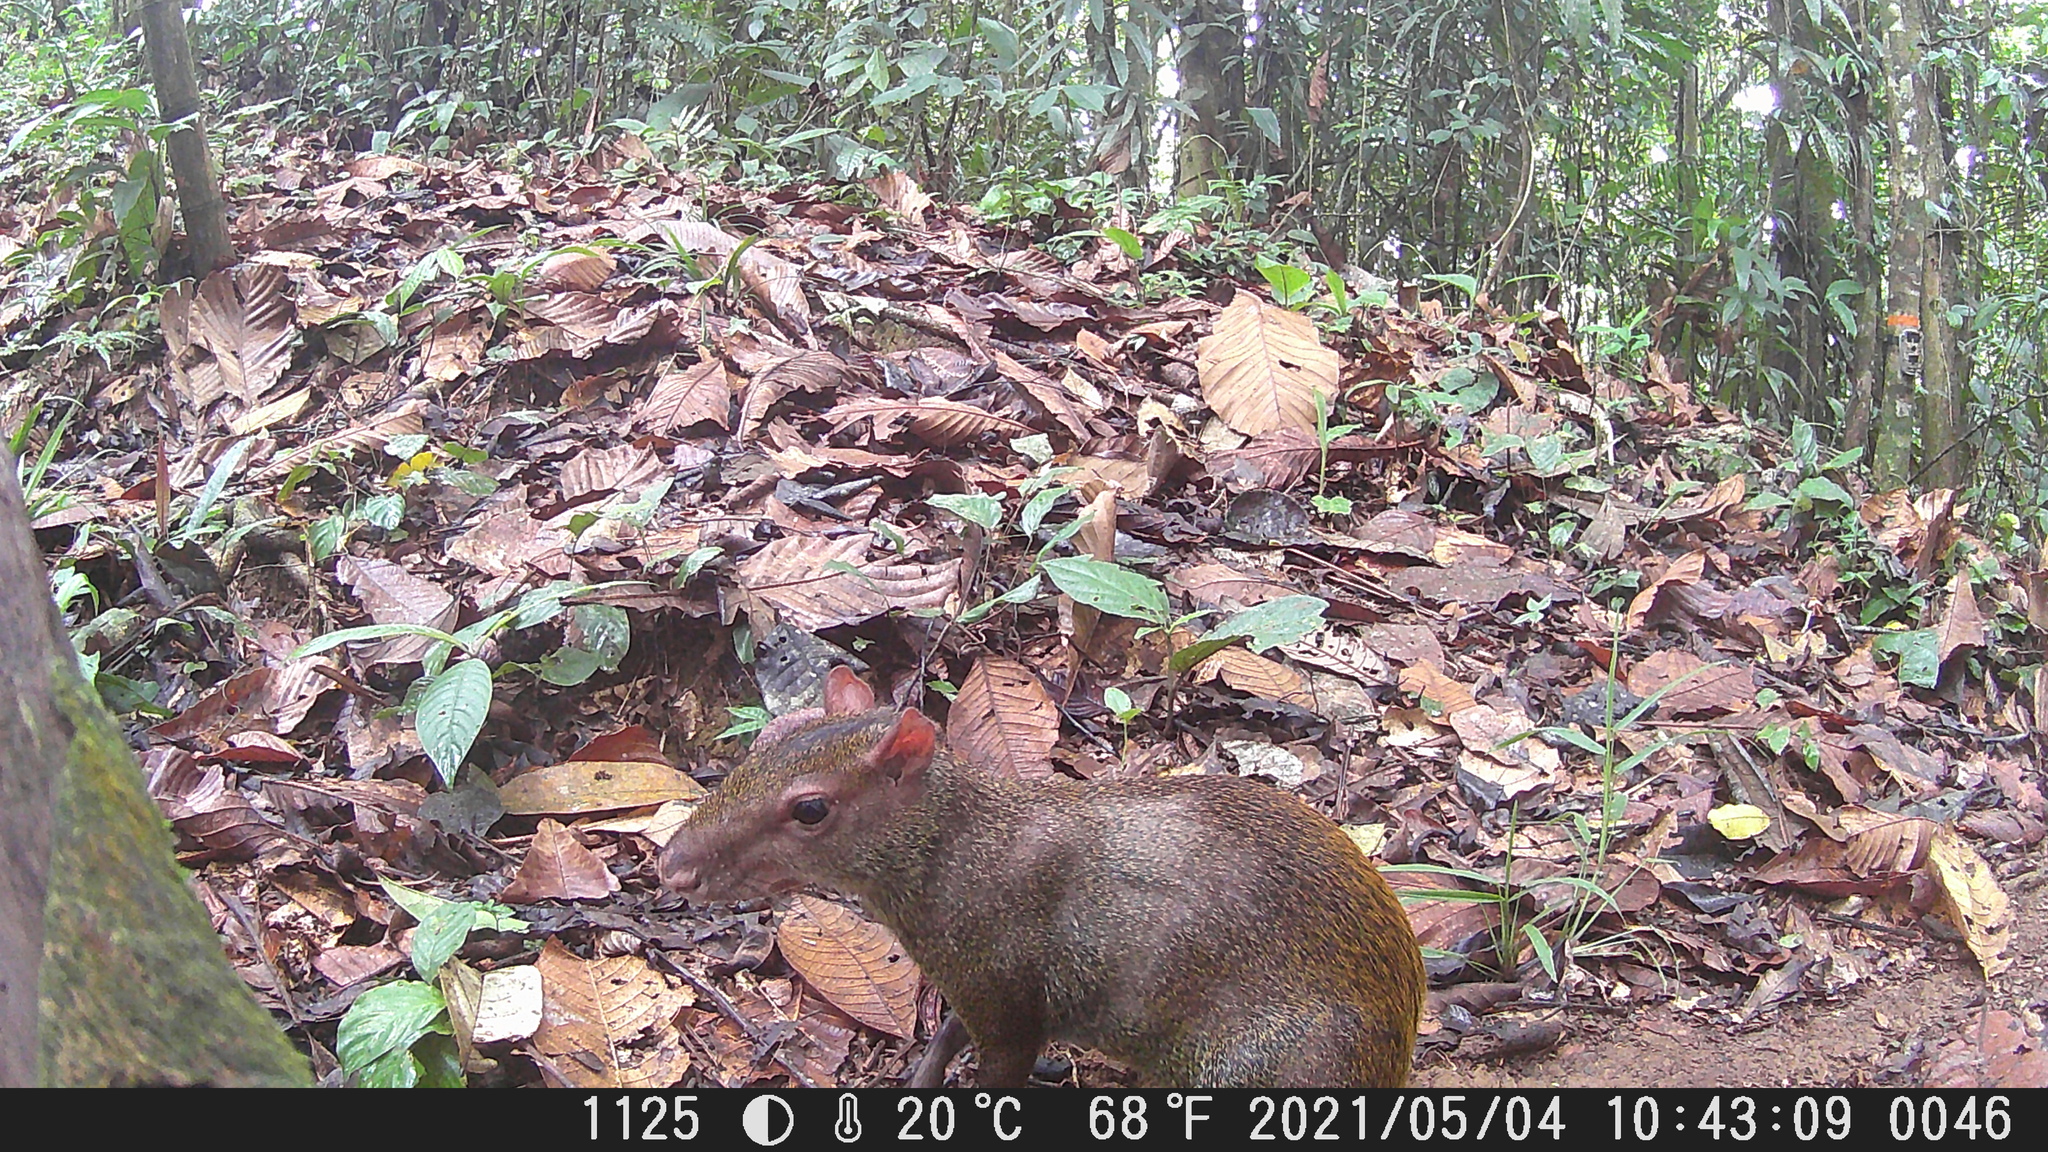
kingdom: Animalia
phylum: Chordata
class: Mammalia
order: Rodentia
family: Dasyproctidae
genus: Dasyprocta
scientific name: Dasyprocta punctata
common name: Central american agouti
